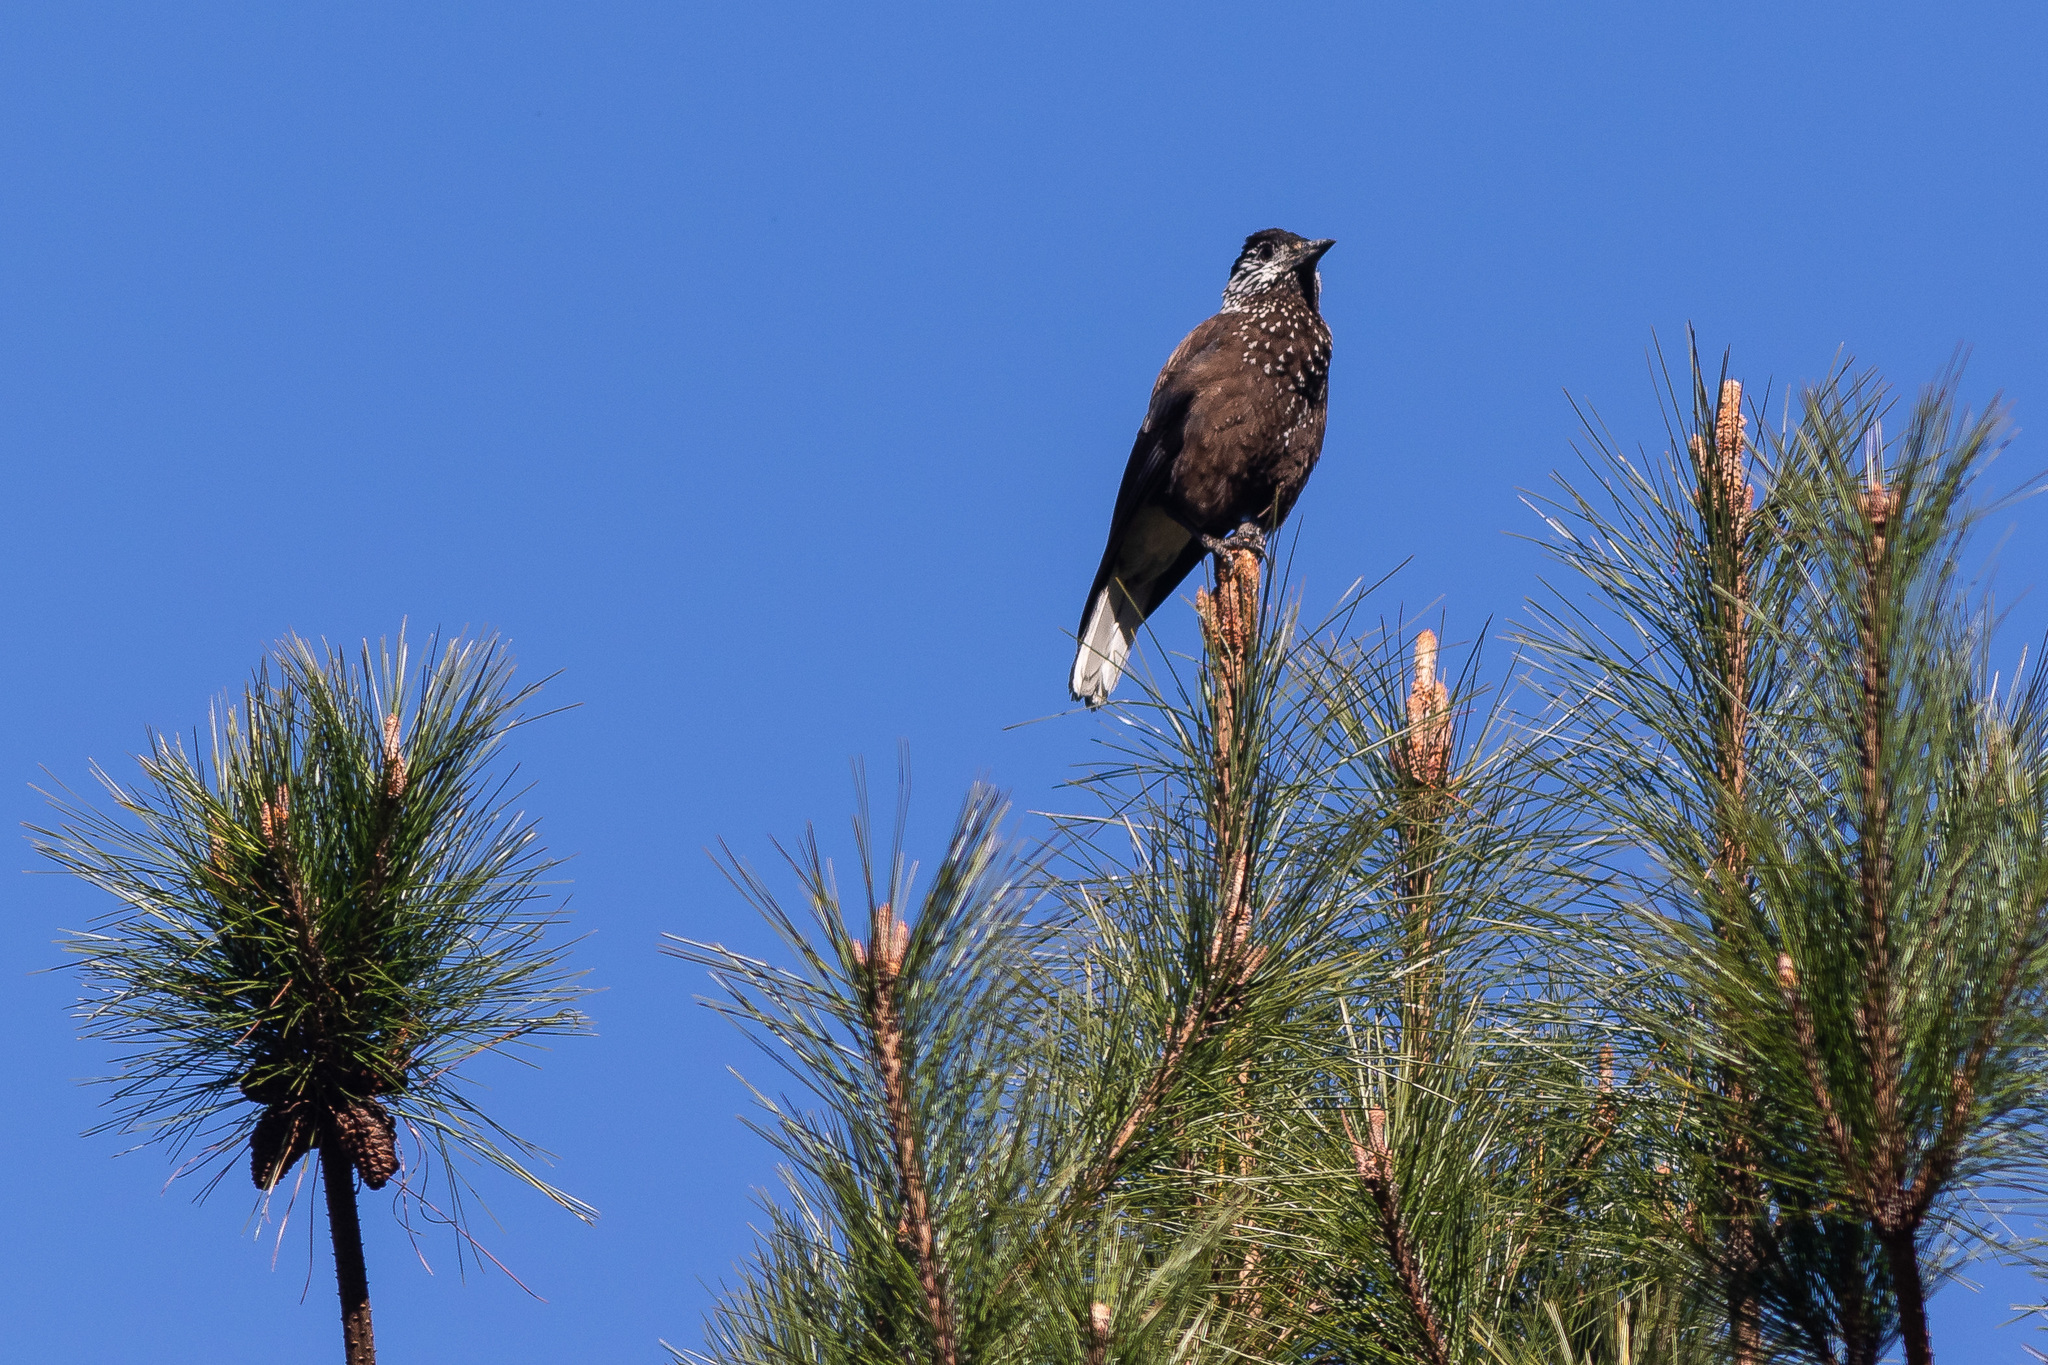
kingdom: Animalia
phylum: Chordata
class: Aves
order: Passeriformes
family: Corvidae
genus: Nucifraga
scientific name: Nucifraga caryocatactes
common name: Spotted nutcracker
